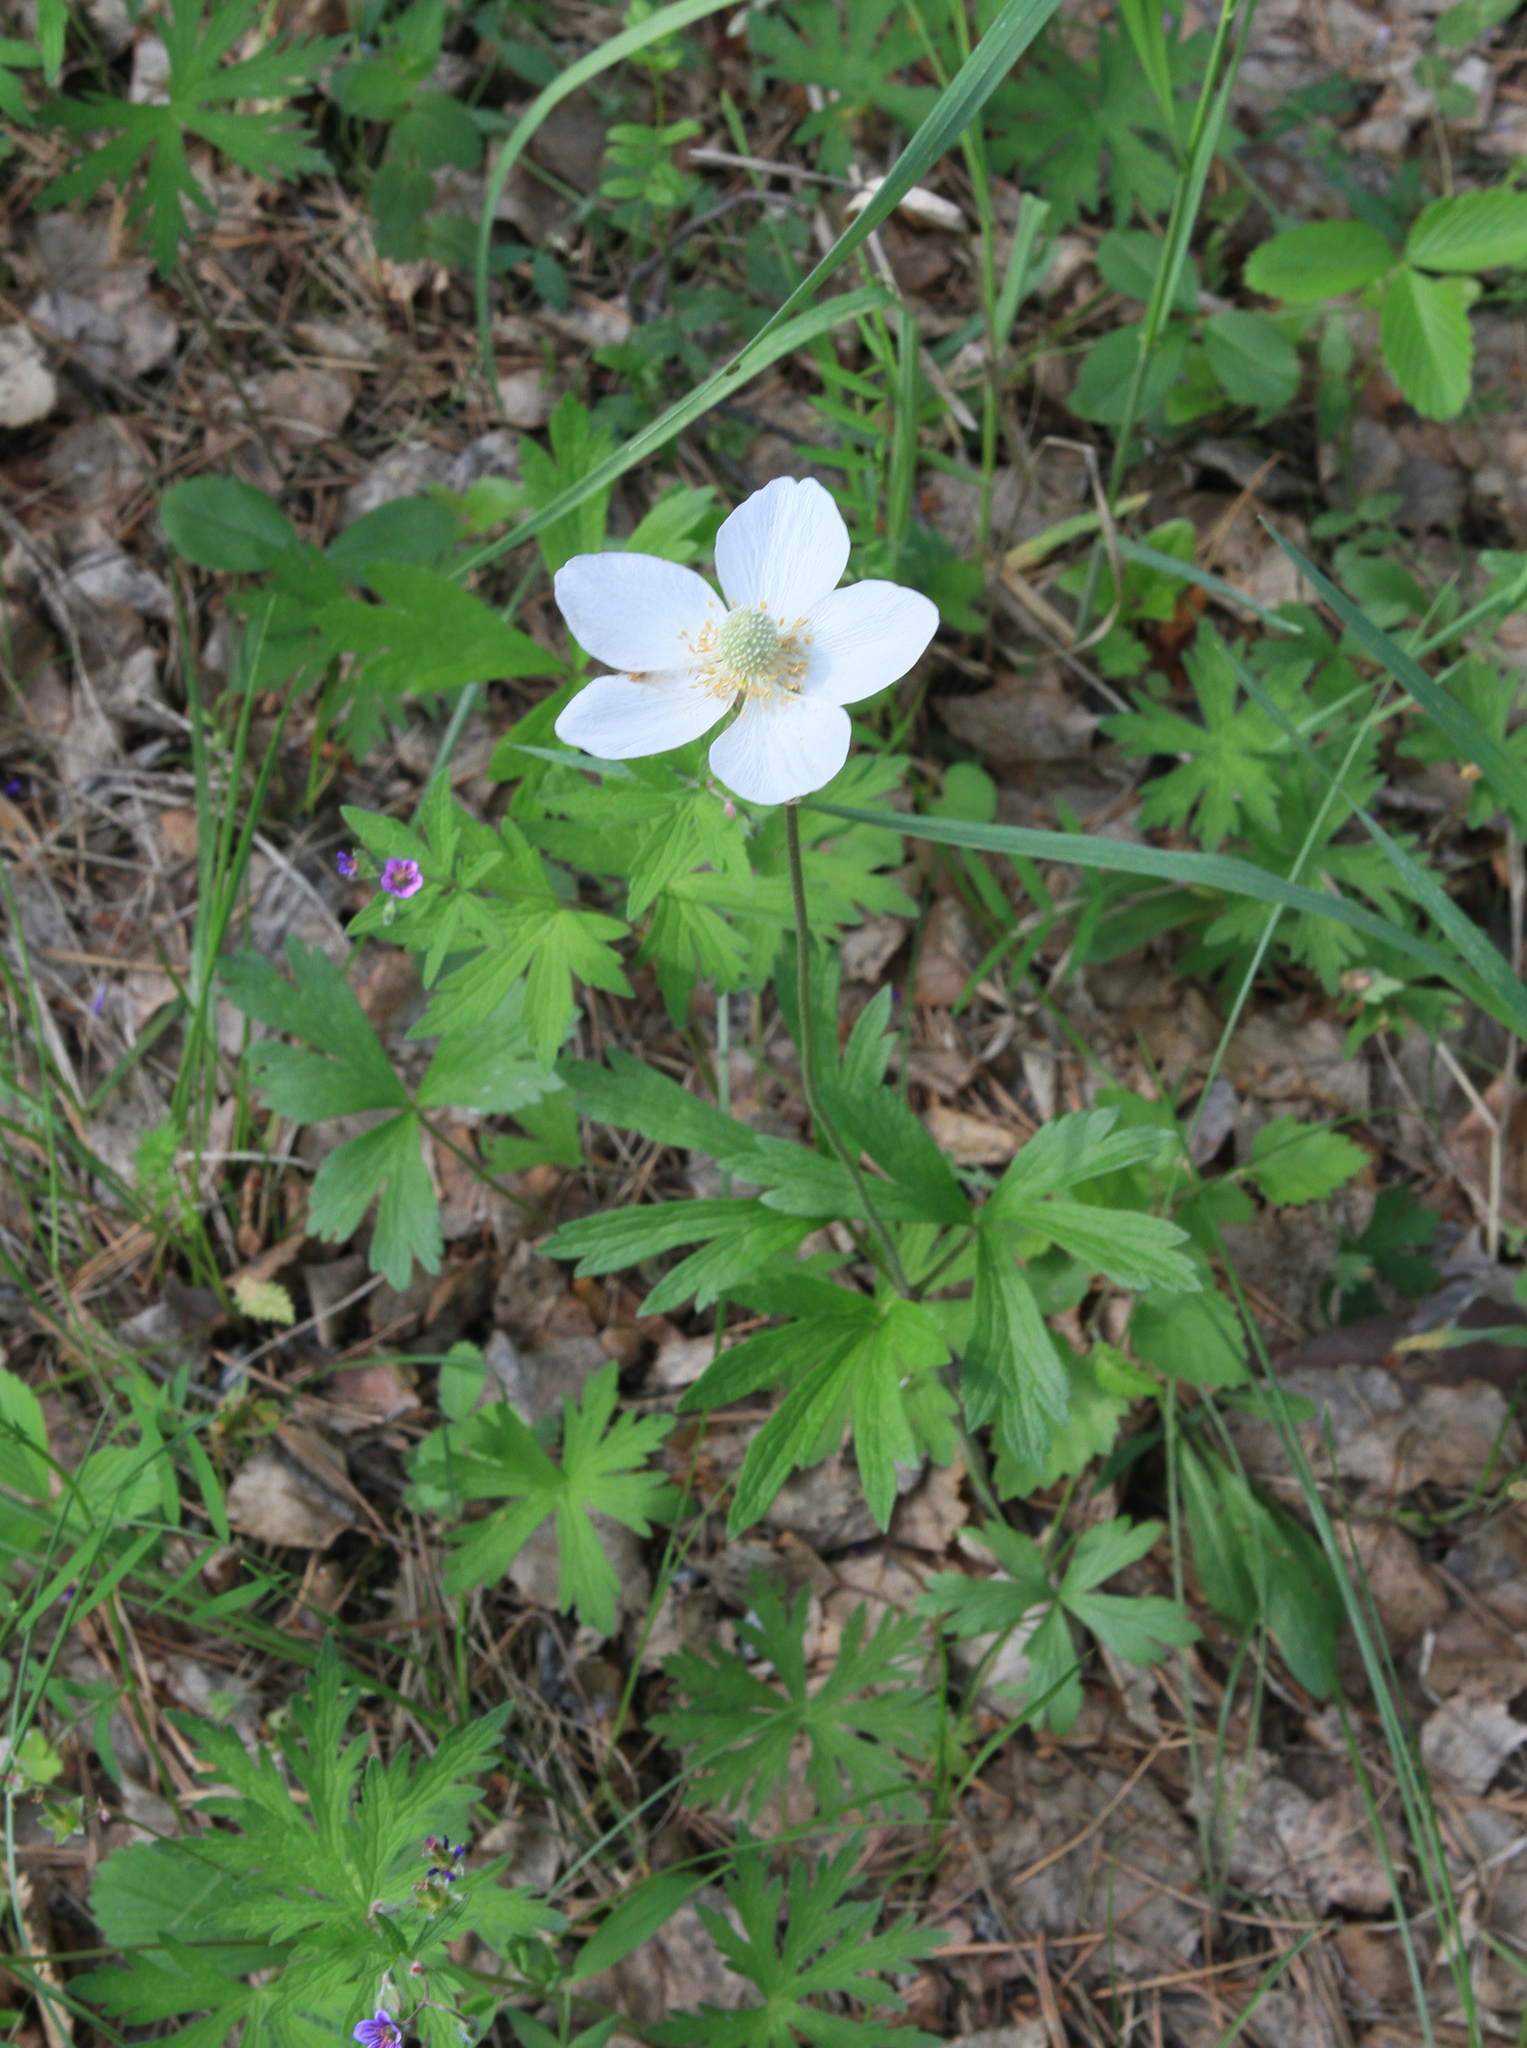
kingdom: Plantae
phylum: Tracheophyta
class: Magnoliopsida
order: Ranunculales
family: Ranunculaceae
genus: Anemone
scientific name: Anemone sylvestris
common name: Snowdrop anemone
